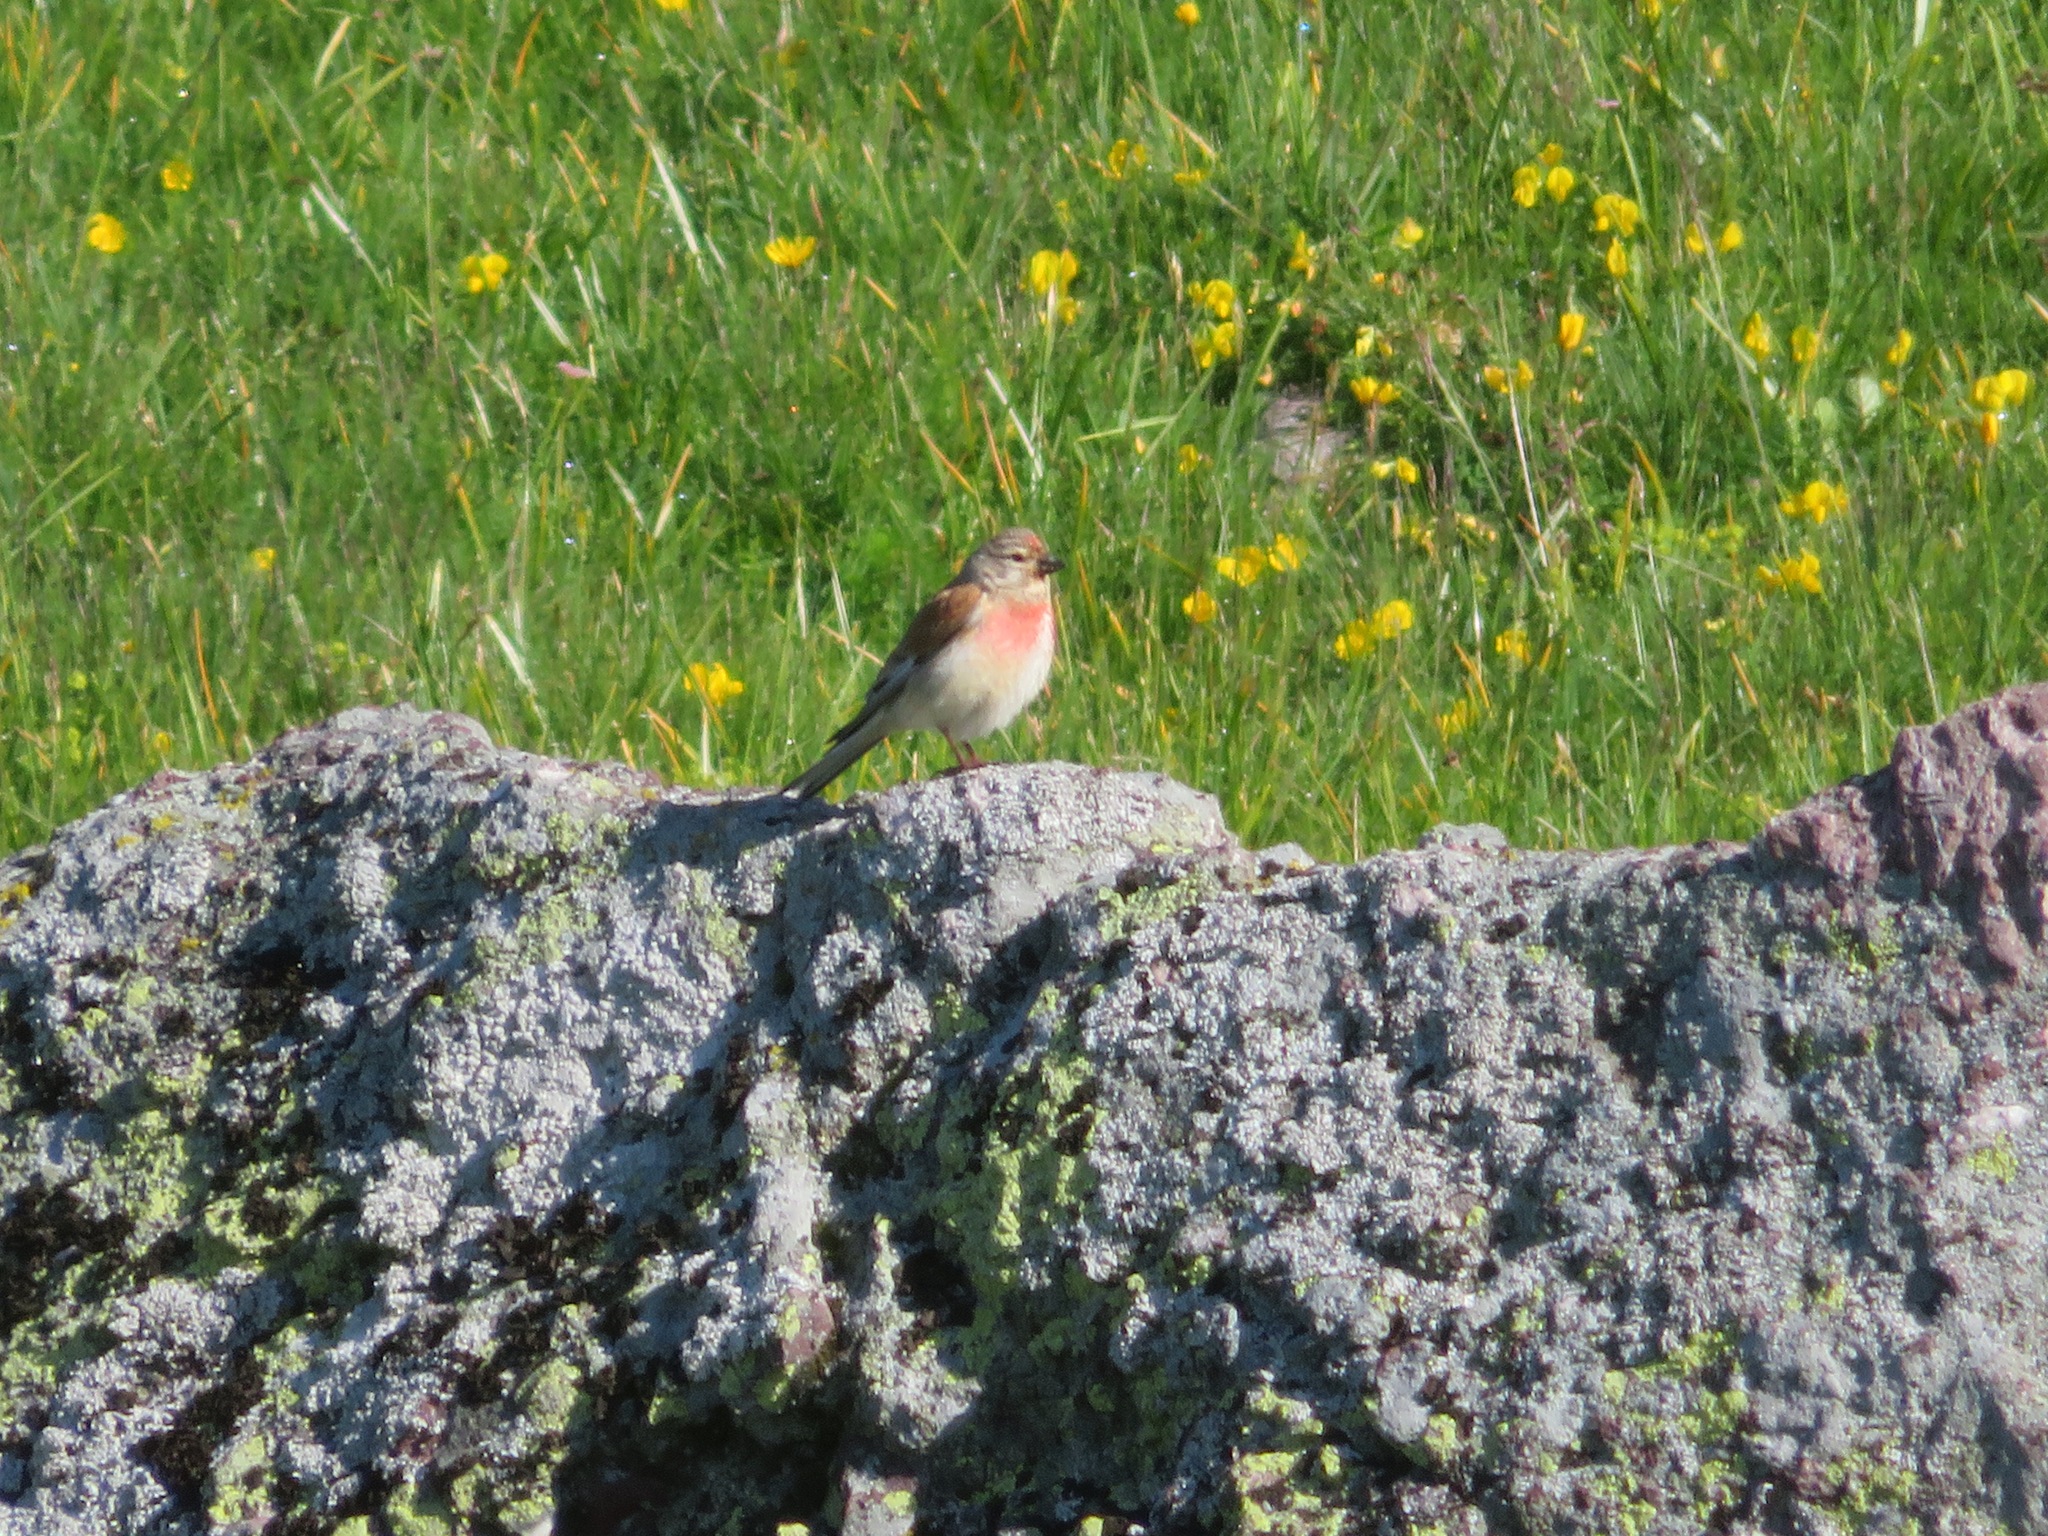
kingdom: Animalia
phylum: Chordata
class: Aves
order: Passeriformes
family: Fringillidae
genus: Linaria
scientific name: Linaria cannabina
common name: Common linnet
